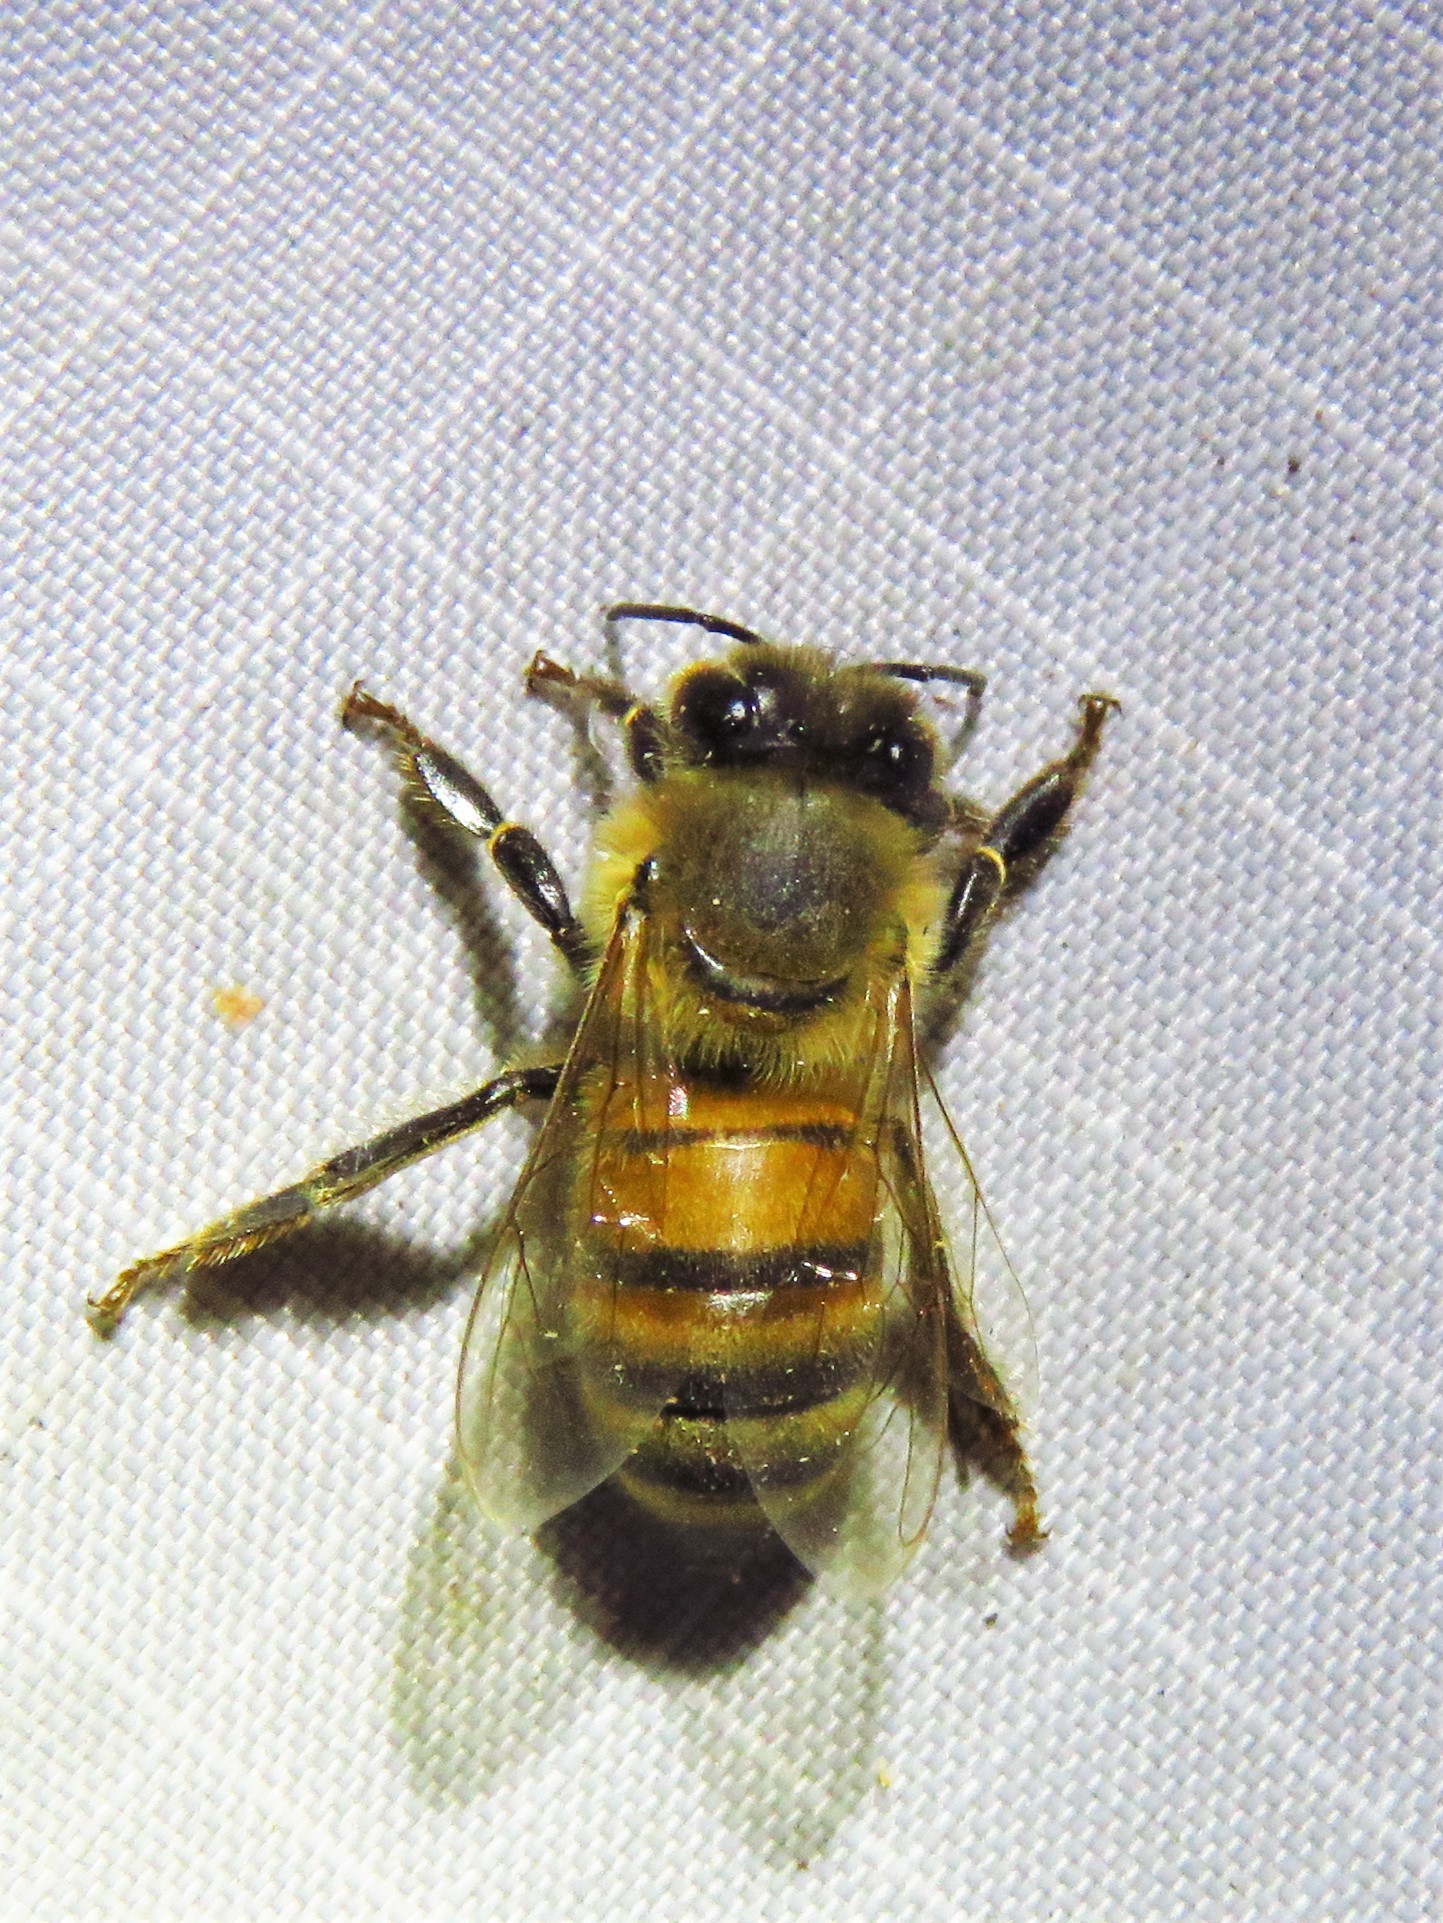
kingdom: Animalia
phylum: Arthropoda
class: Insecta
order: Hymenoptera
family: Apidae
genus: Apis
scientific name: Apis mellifera
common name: Honey bee
